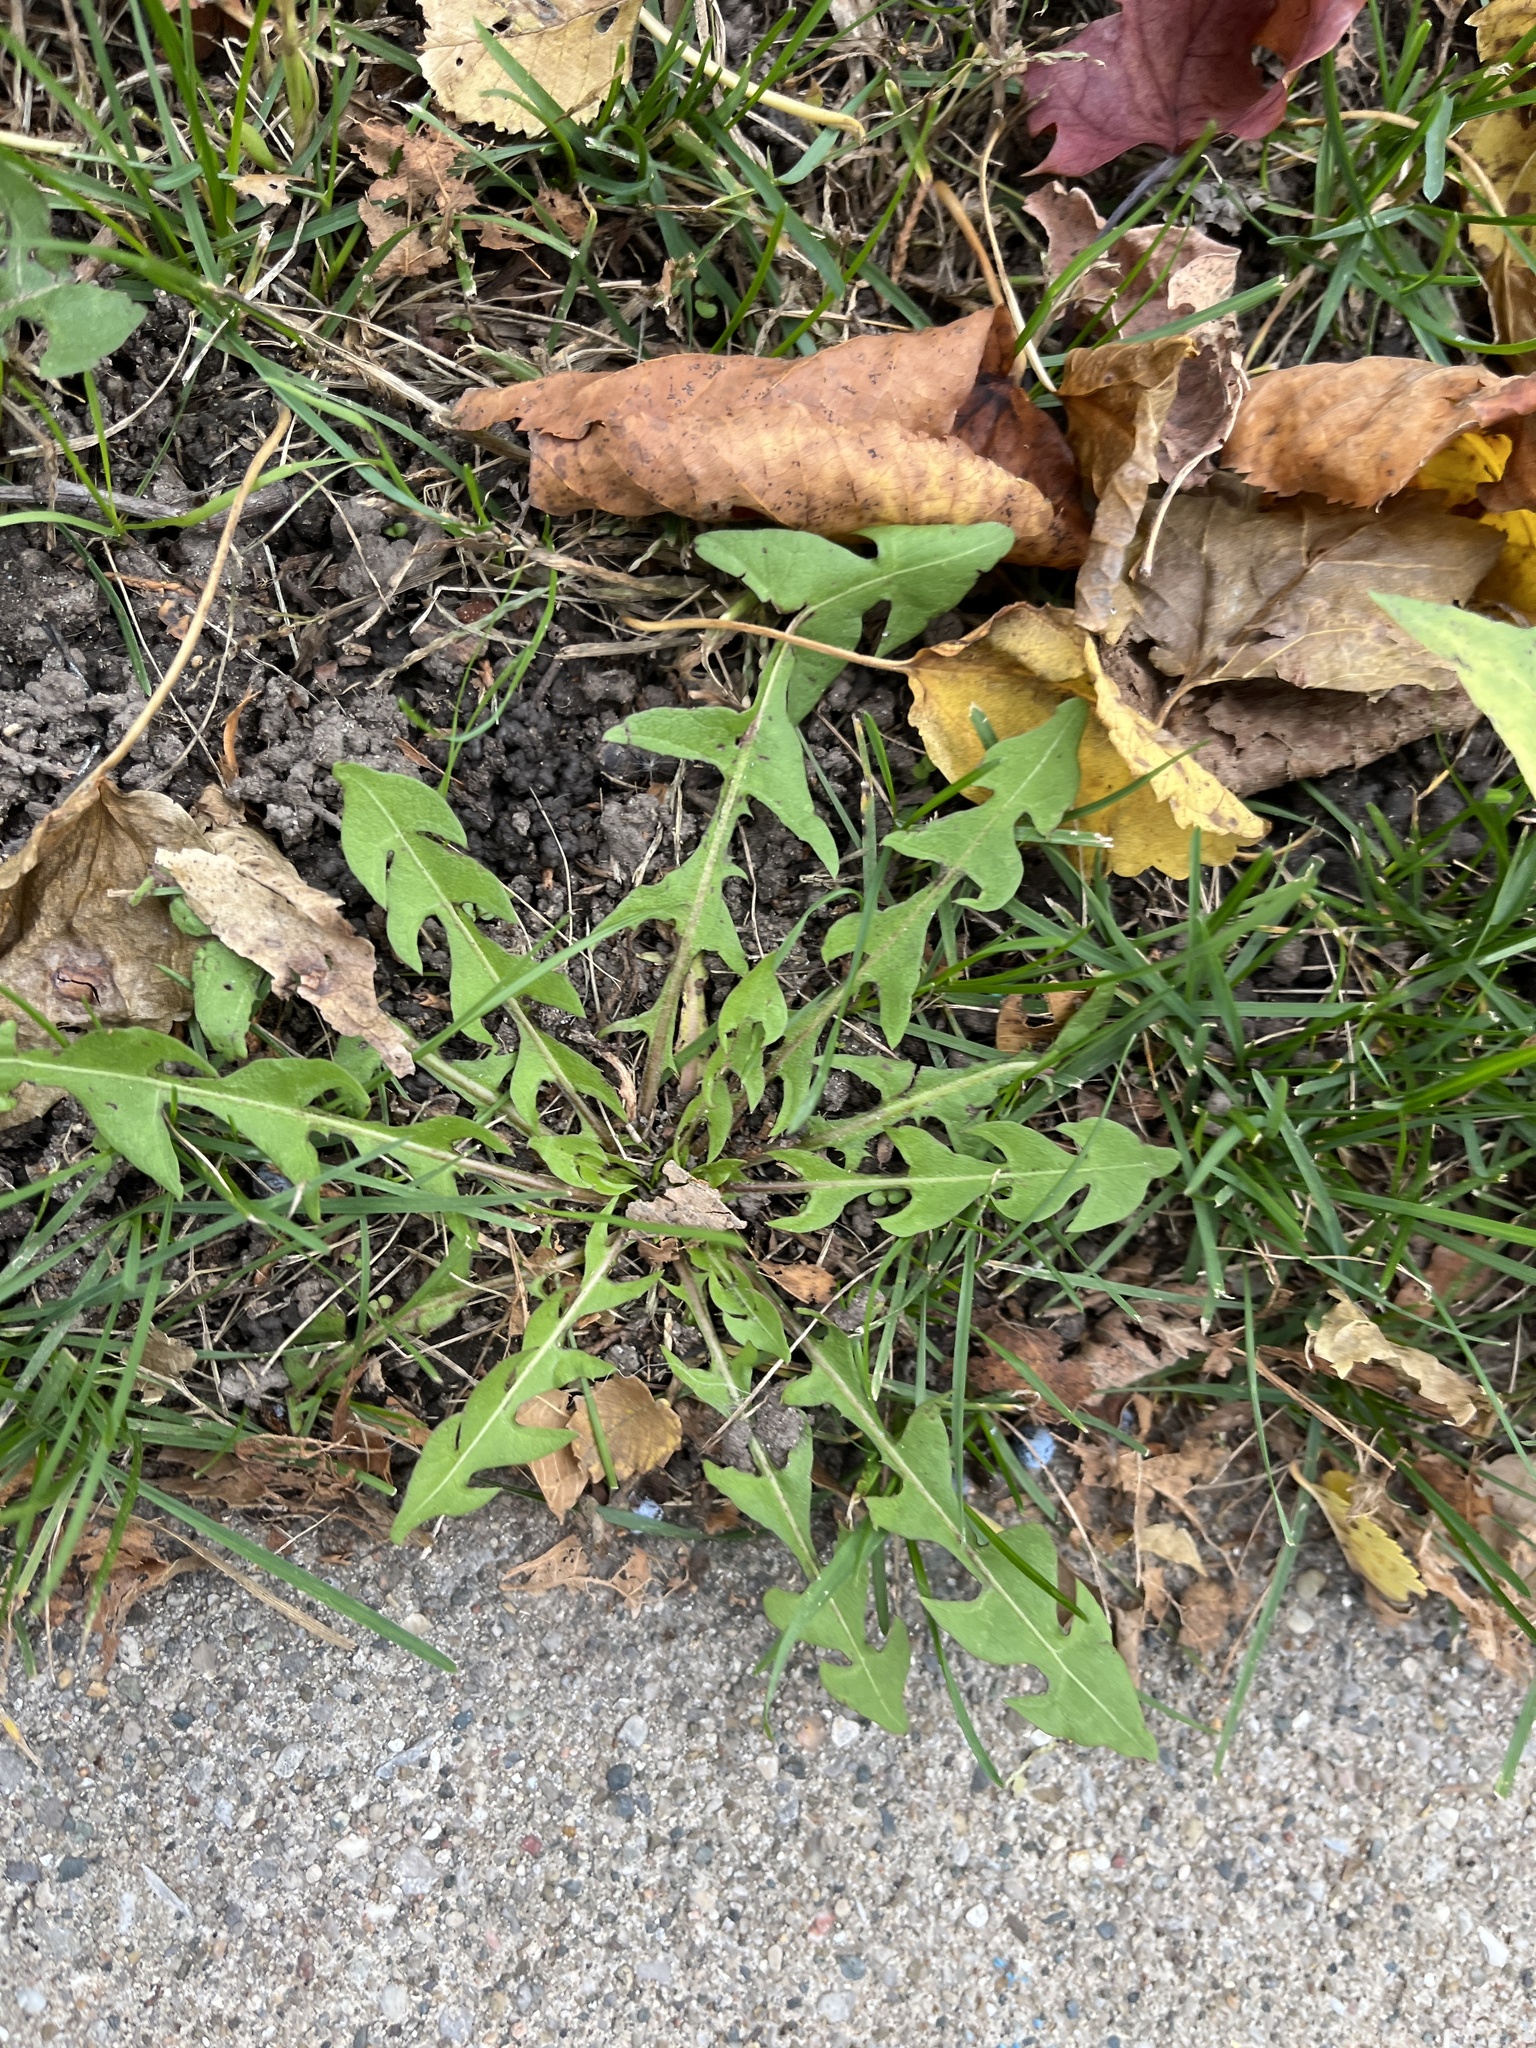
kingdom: Plantae
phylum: Tracheophyta
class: Magnoliopsida
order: Asterales
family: Asteraceae
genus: Taraxacum
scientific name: Taraxacum
